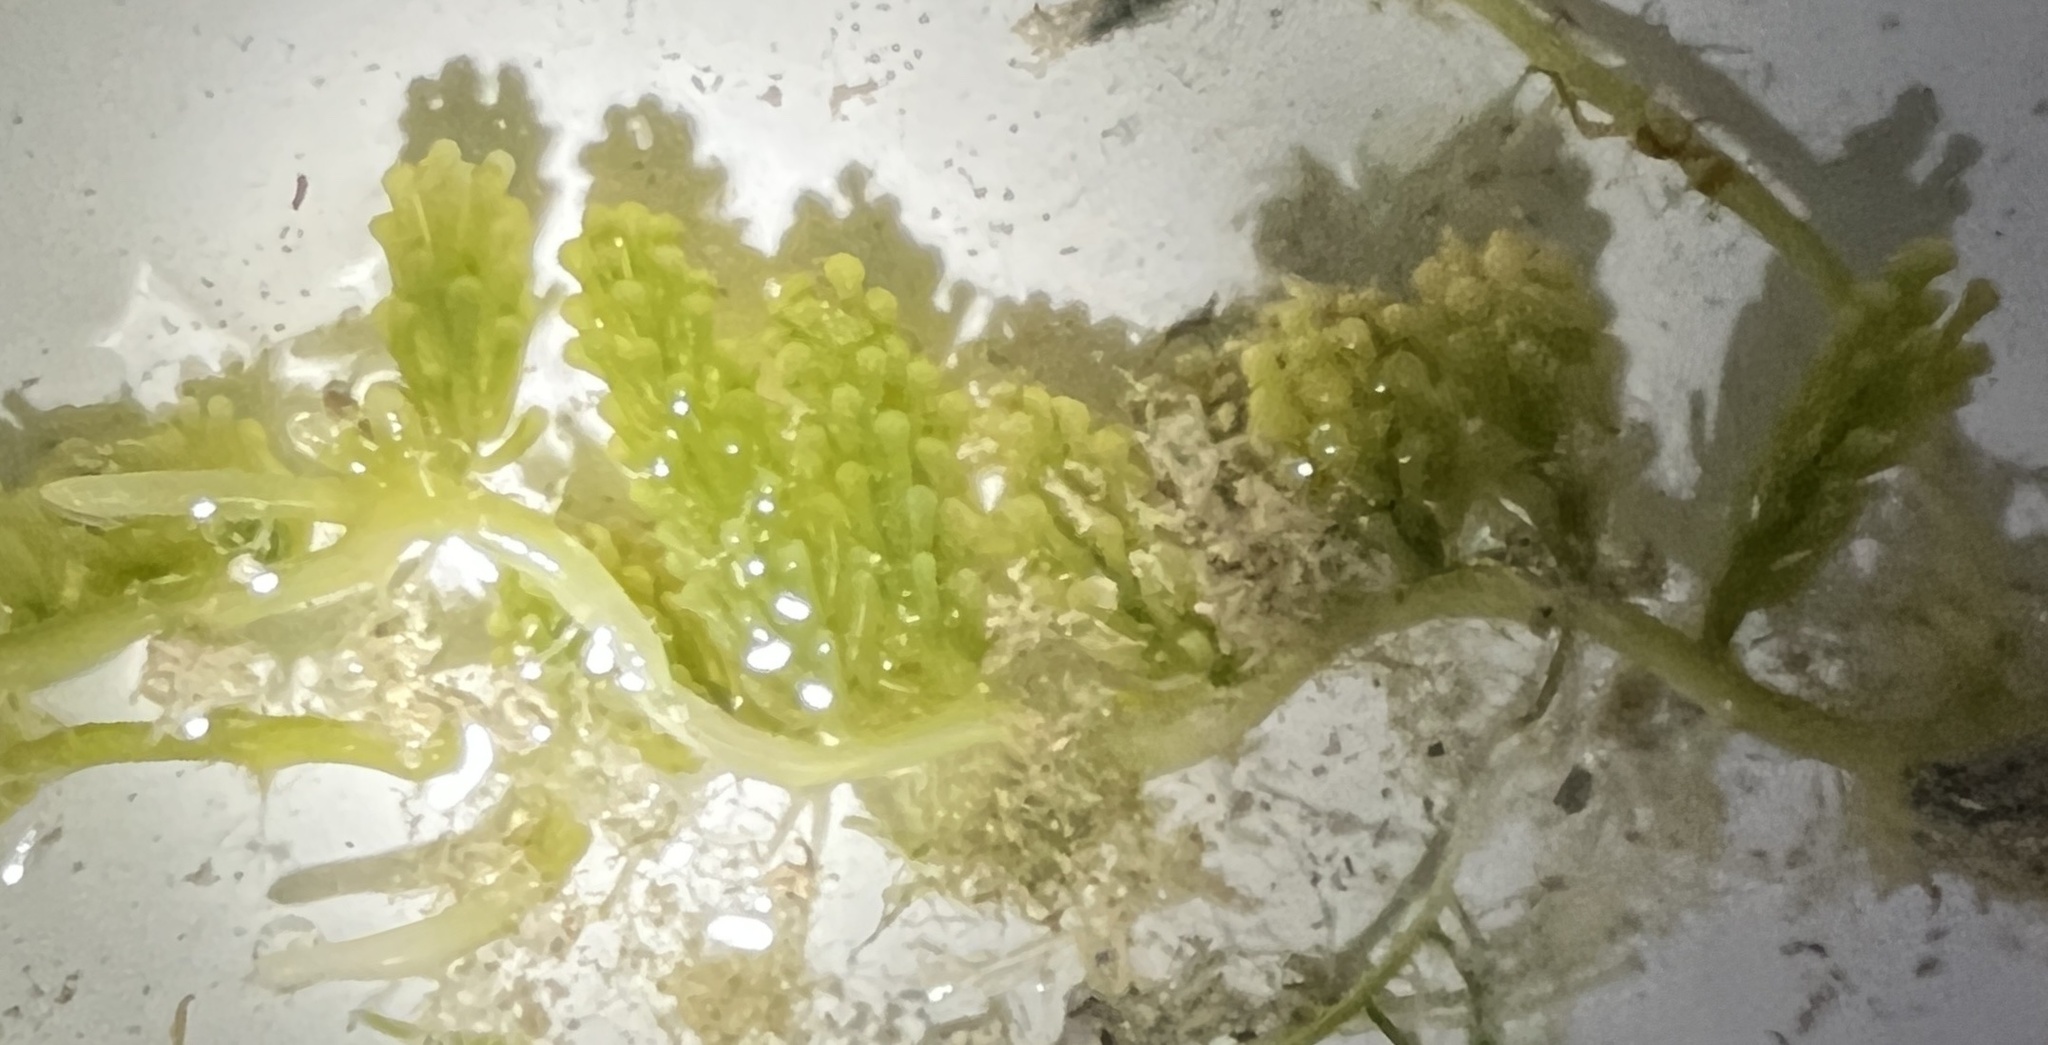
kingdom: Plantae
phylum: Chlorophyta
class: Ulvophyceae
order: Bryopsidales
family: Caulerpaceae
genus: Caulerpa
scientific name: Caulerpa racemosa
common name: Green grape algae
